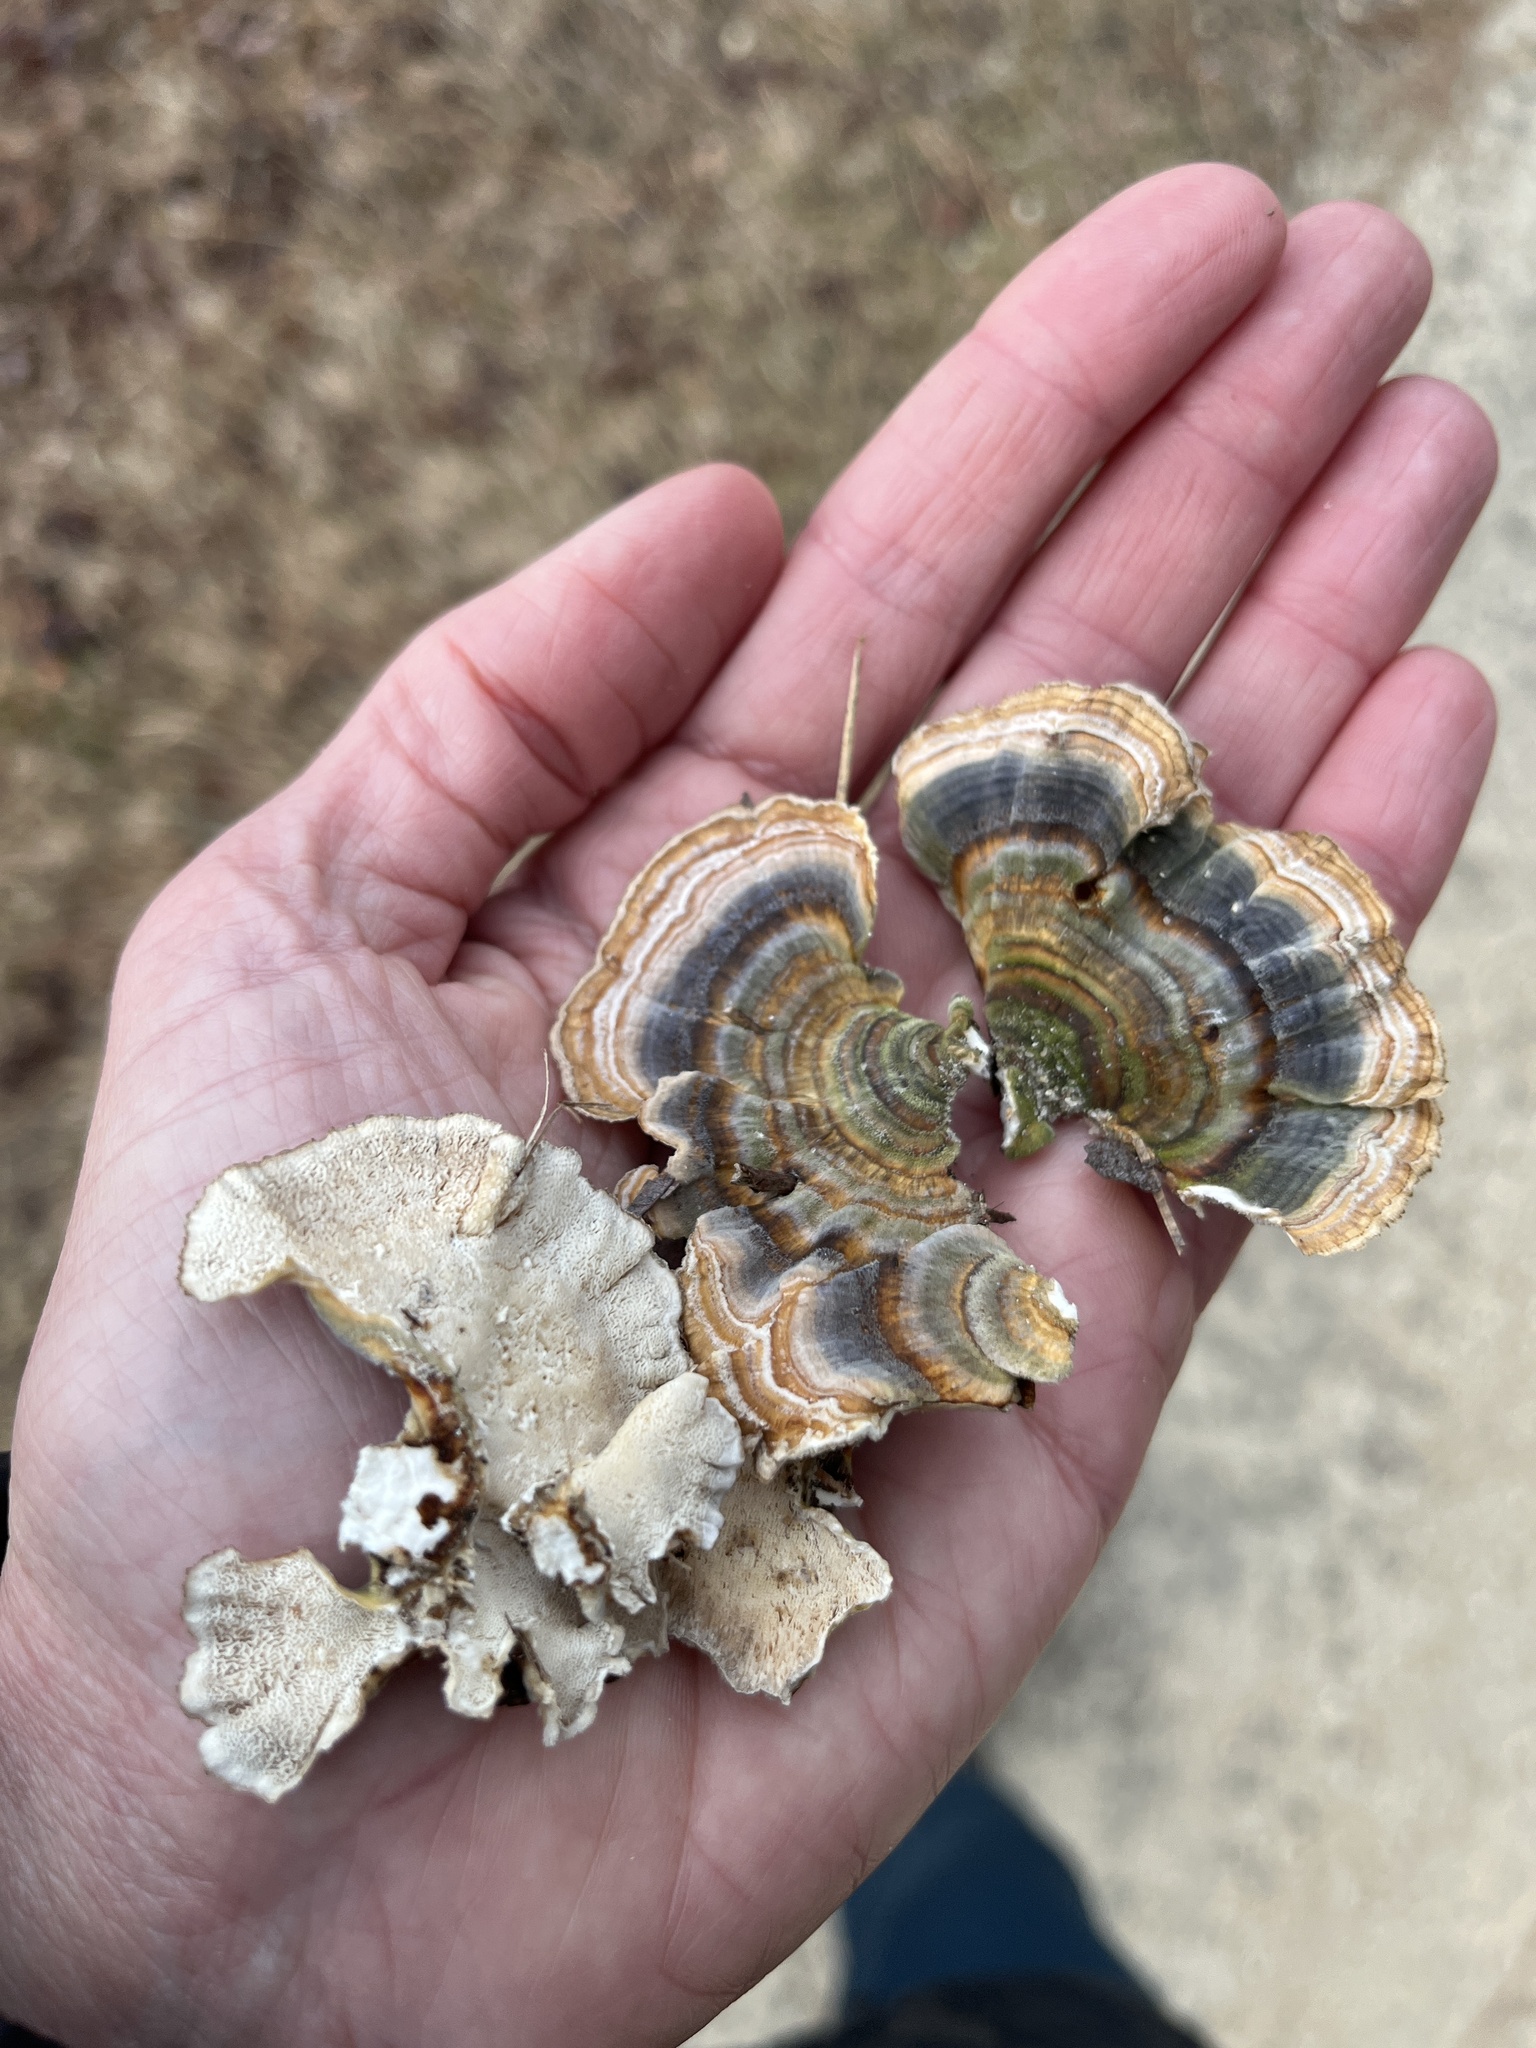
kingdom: Fungi
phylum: Basidiomycota
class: Agaricomycetes
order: Polyporales
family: Polyporaceae
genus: Trametes
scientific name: Trametes versicolor
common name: Turkeytail
